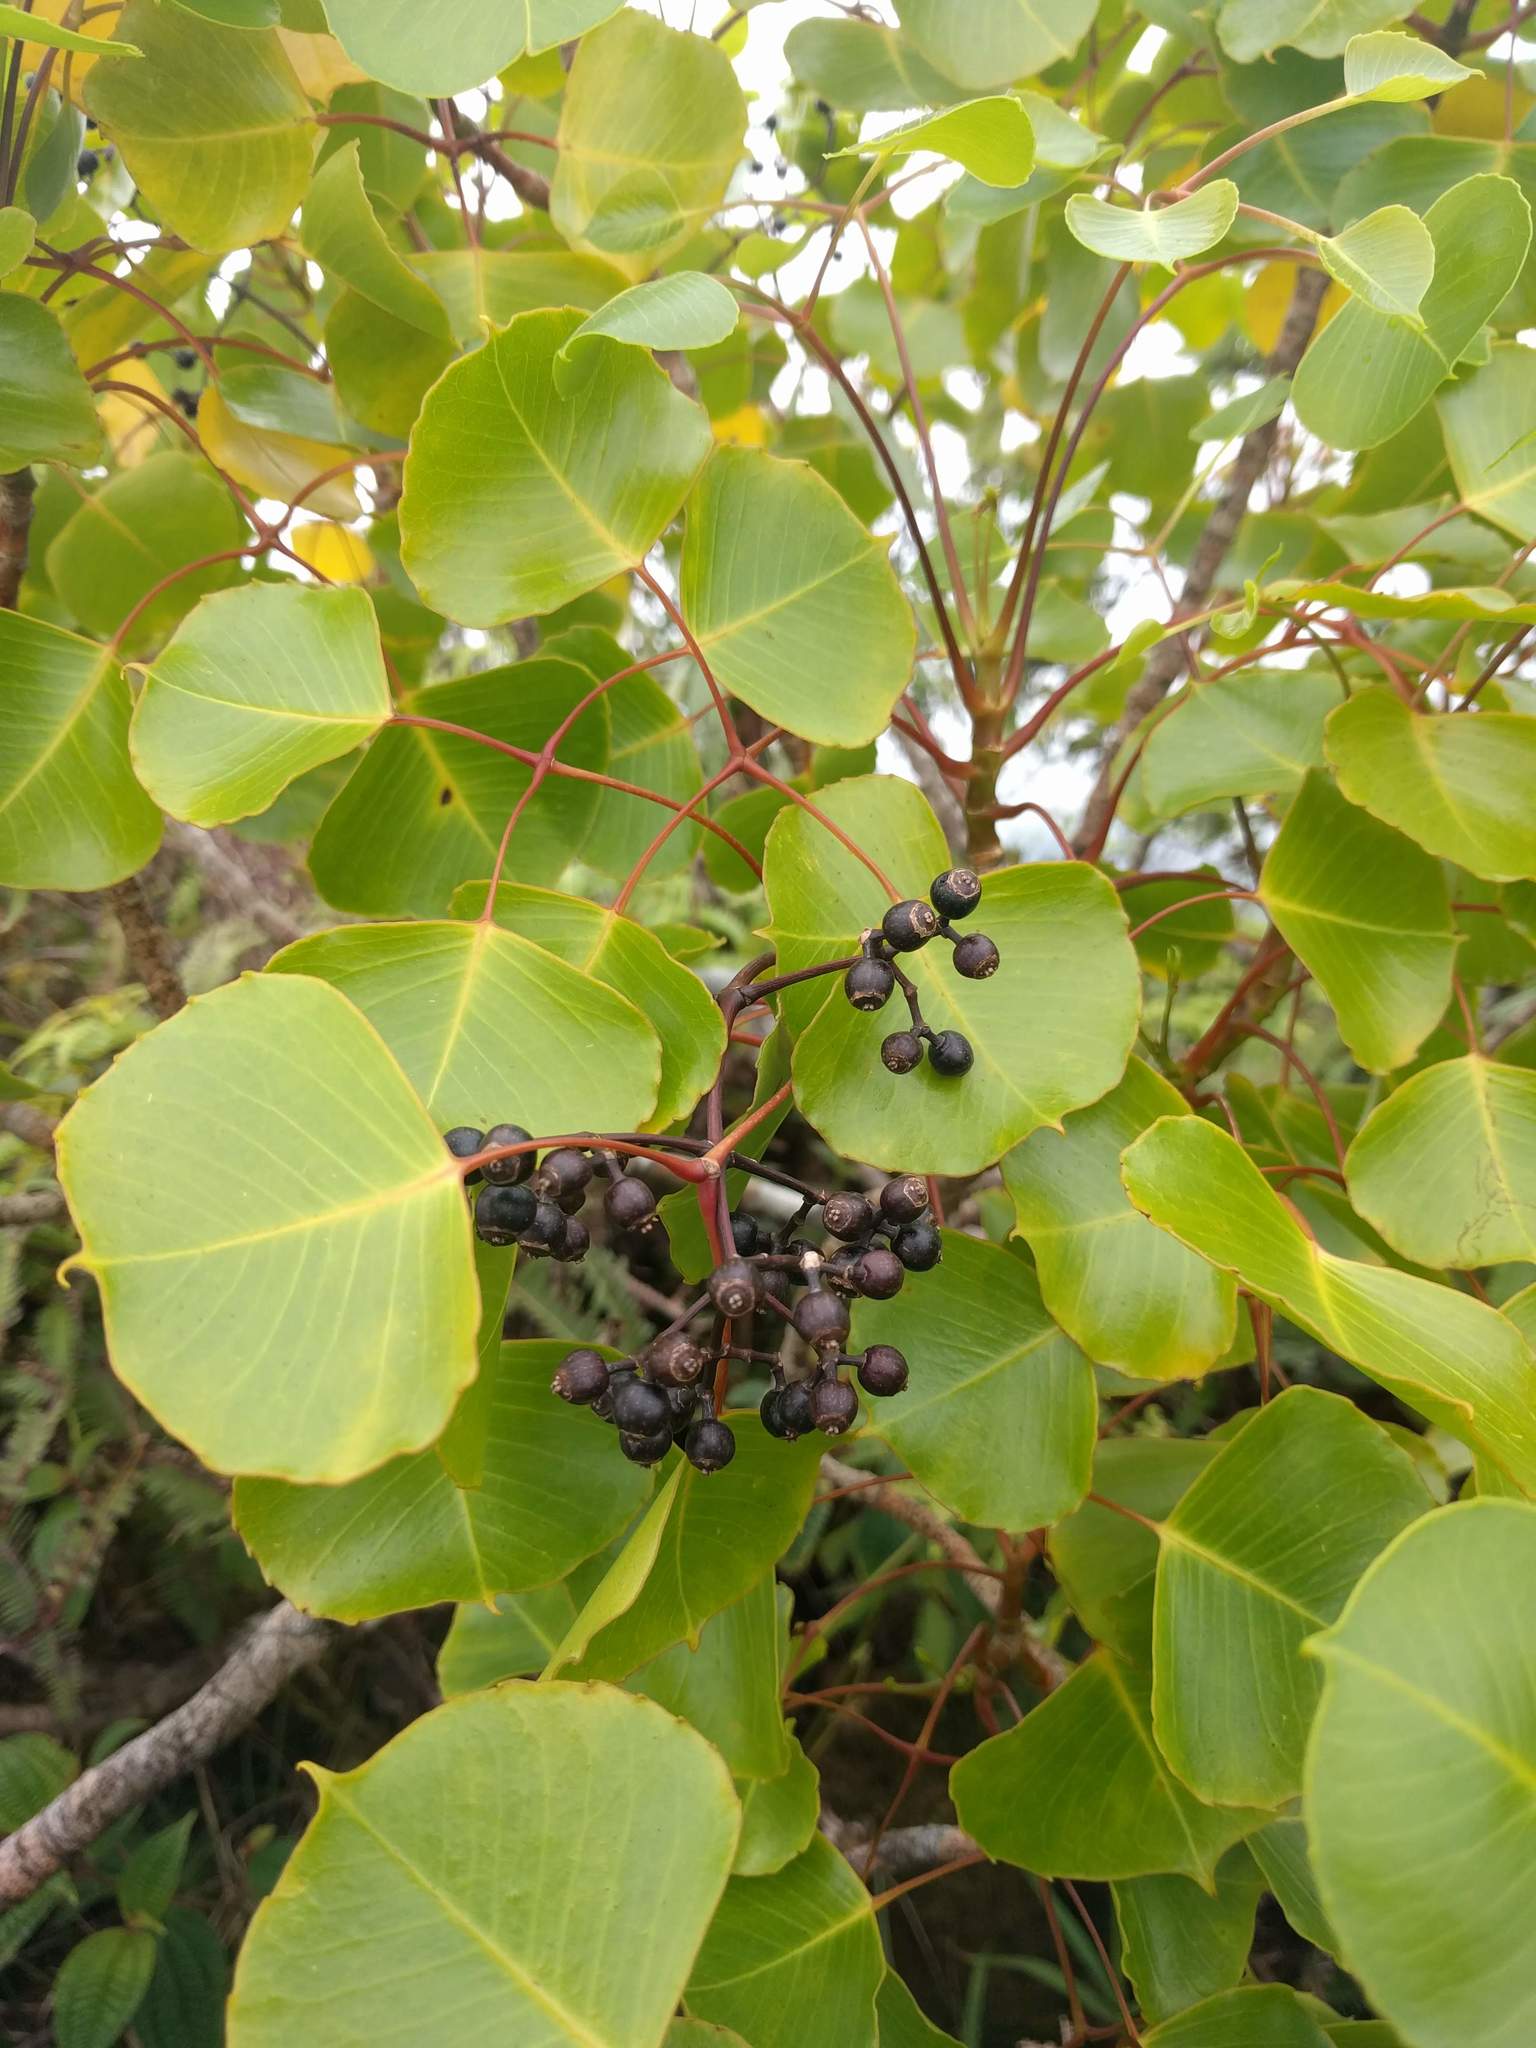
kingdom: Plantae
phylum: Tracheophyta
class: Magnoliopsida
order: Apiales
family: Araliaceae
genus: Cheirodendron
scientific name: Cheirodendron platyphyllum
